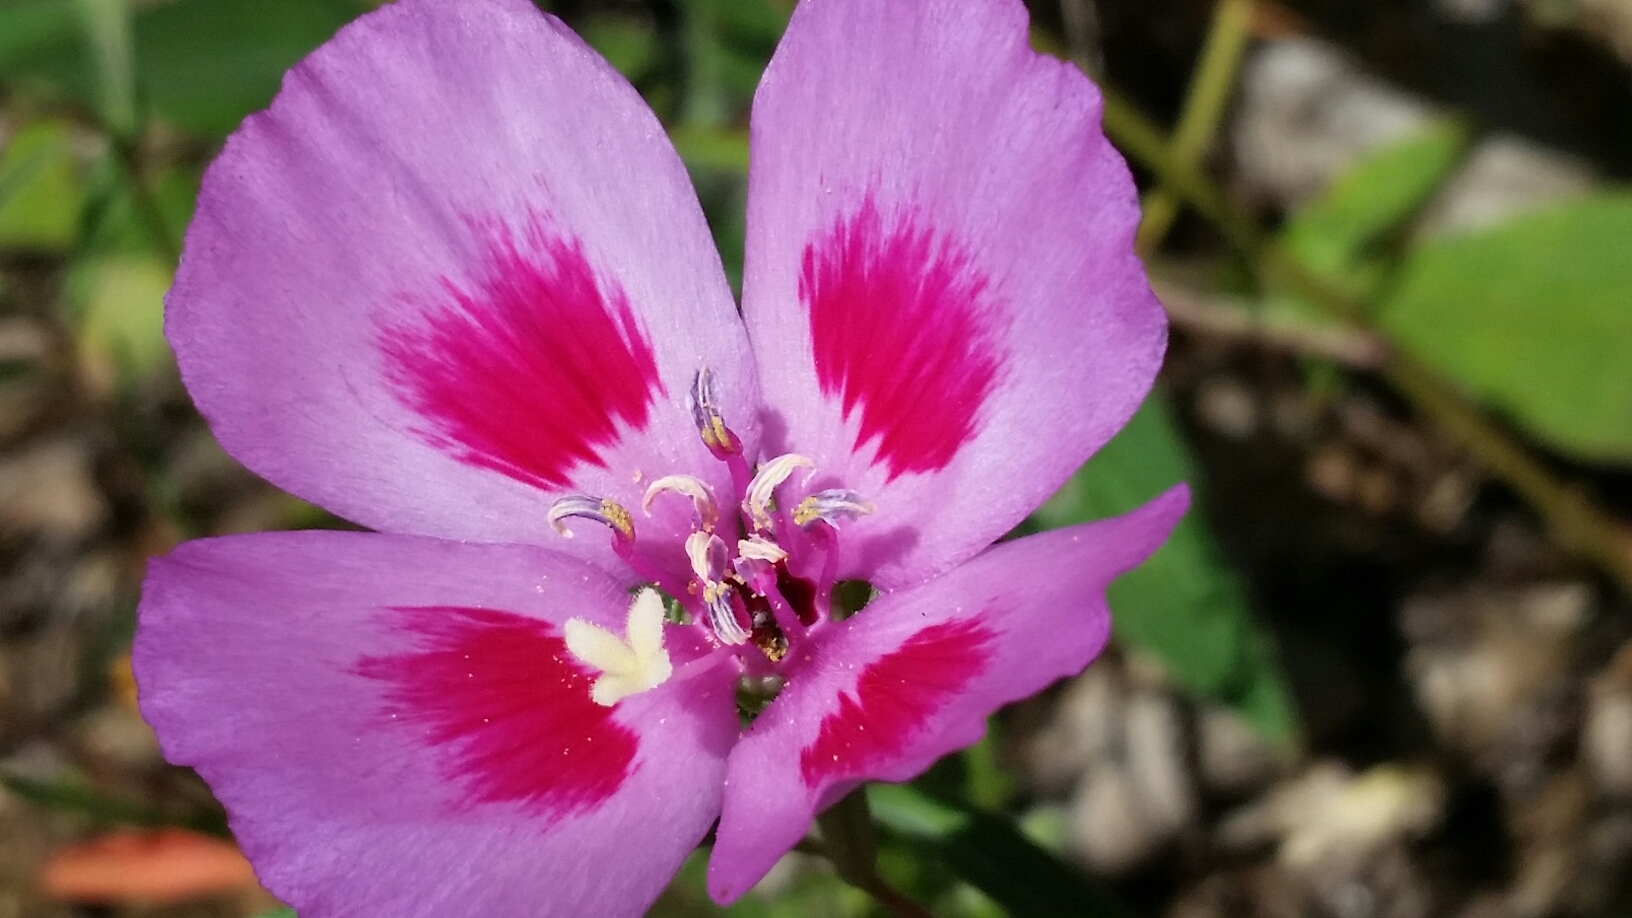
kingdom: Plantae
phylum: Tracheophyta
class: Magnoliopsida
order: Myrtales
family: Onagraceae
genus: Clarkia
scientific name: Clarkia gracilis
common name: Graceful clarkia
